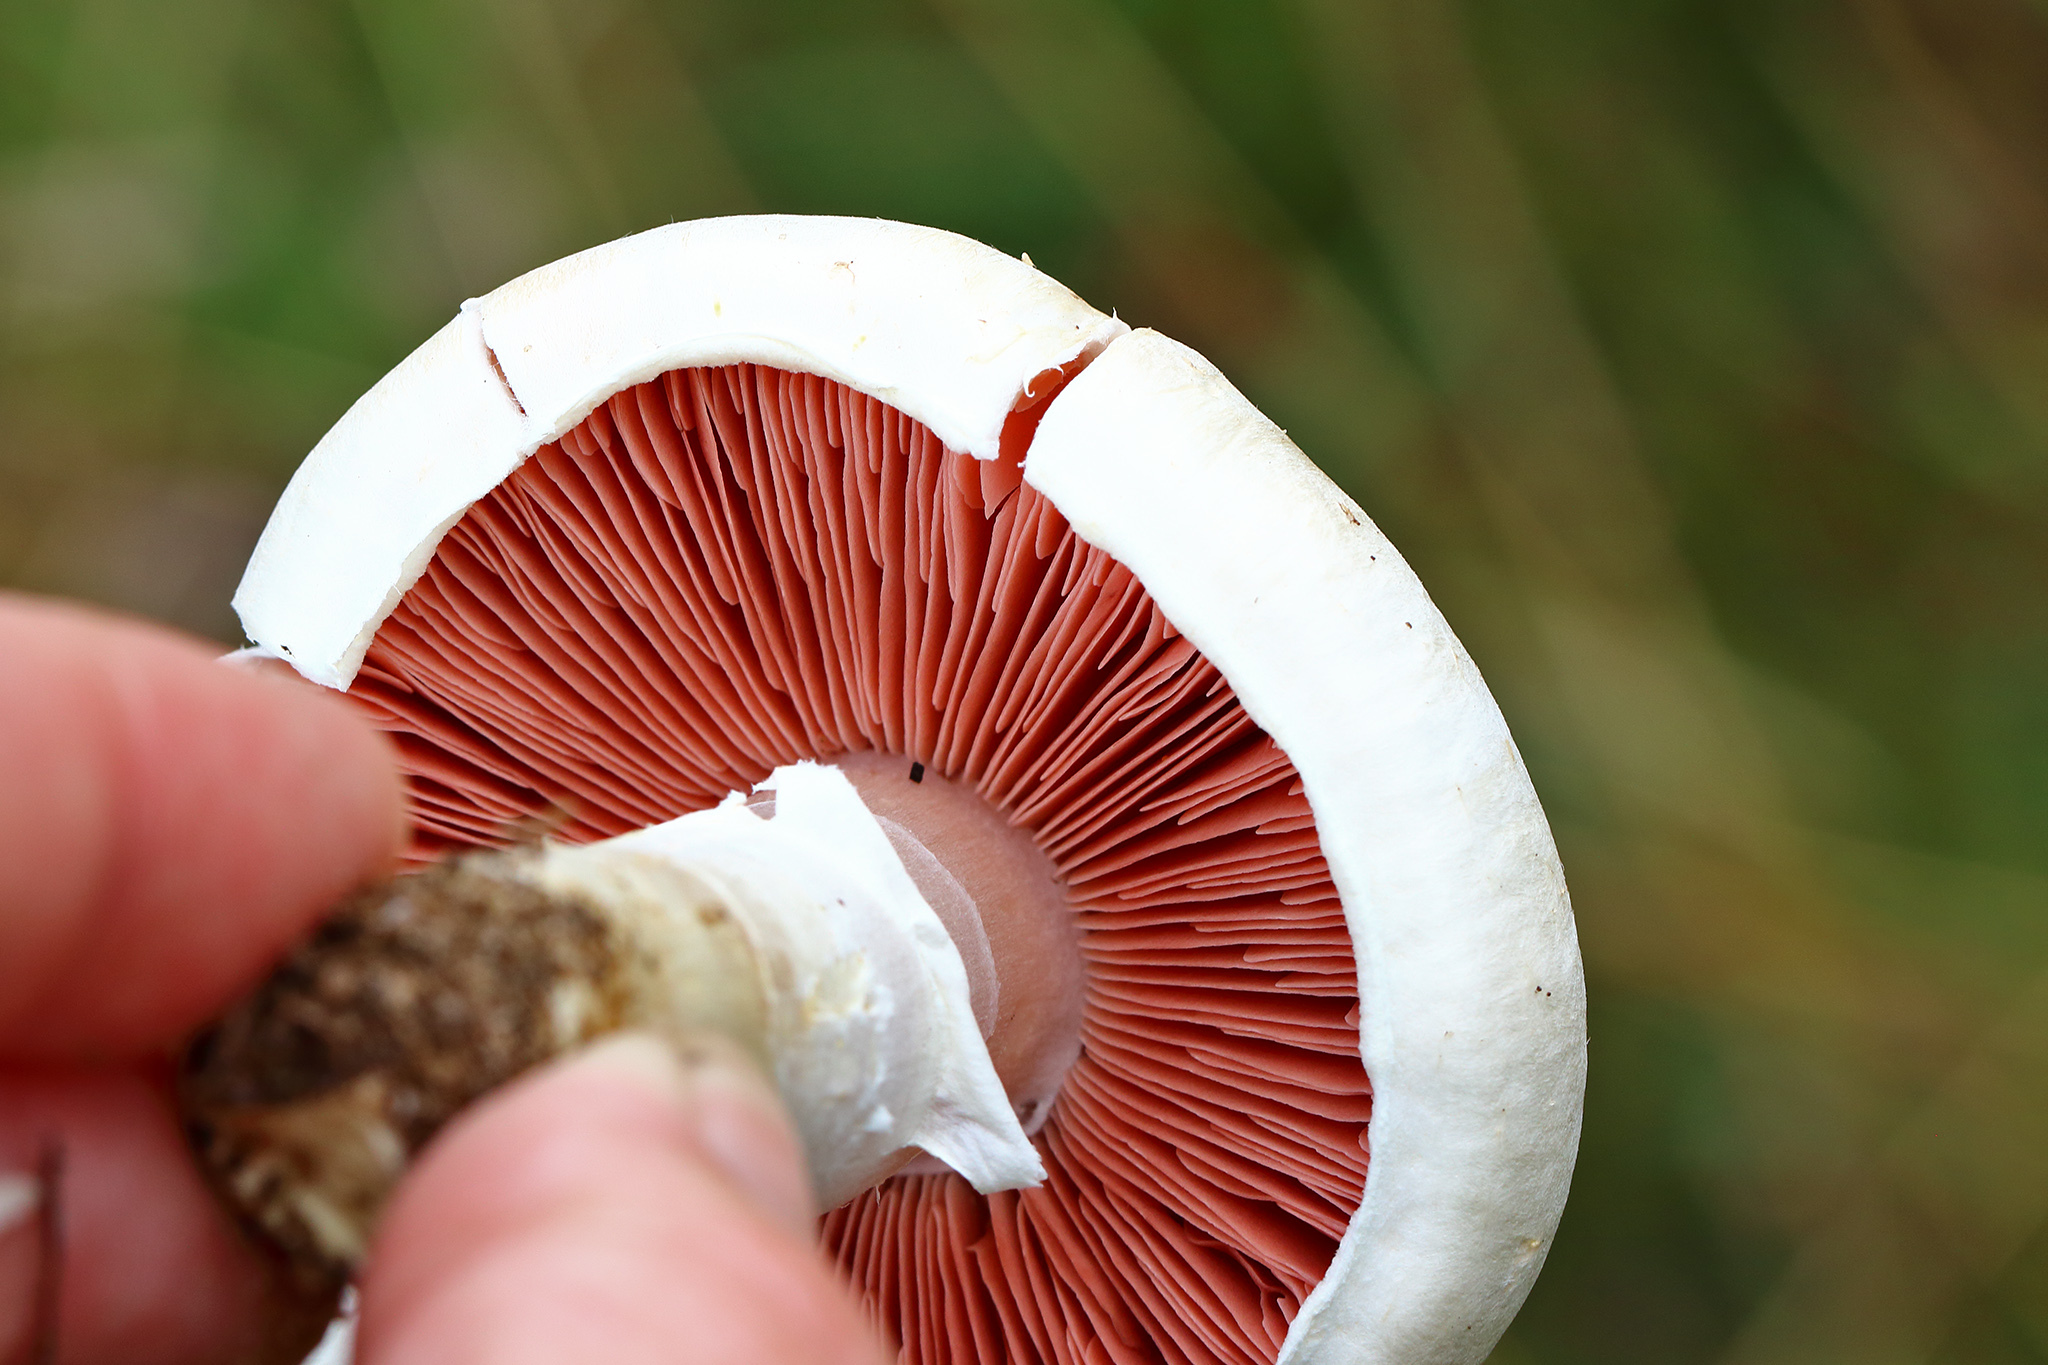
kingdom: Fungi
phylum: Basidiomycota
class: Agaricomycetes
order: Agaricales
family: Agaricaceae
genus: Agaricus
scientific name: Agaricus campestris
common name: Field mushroom
